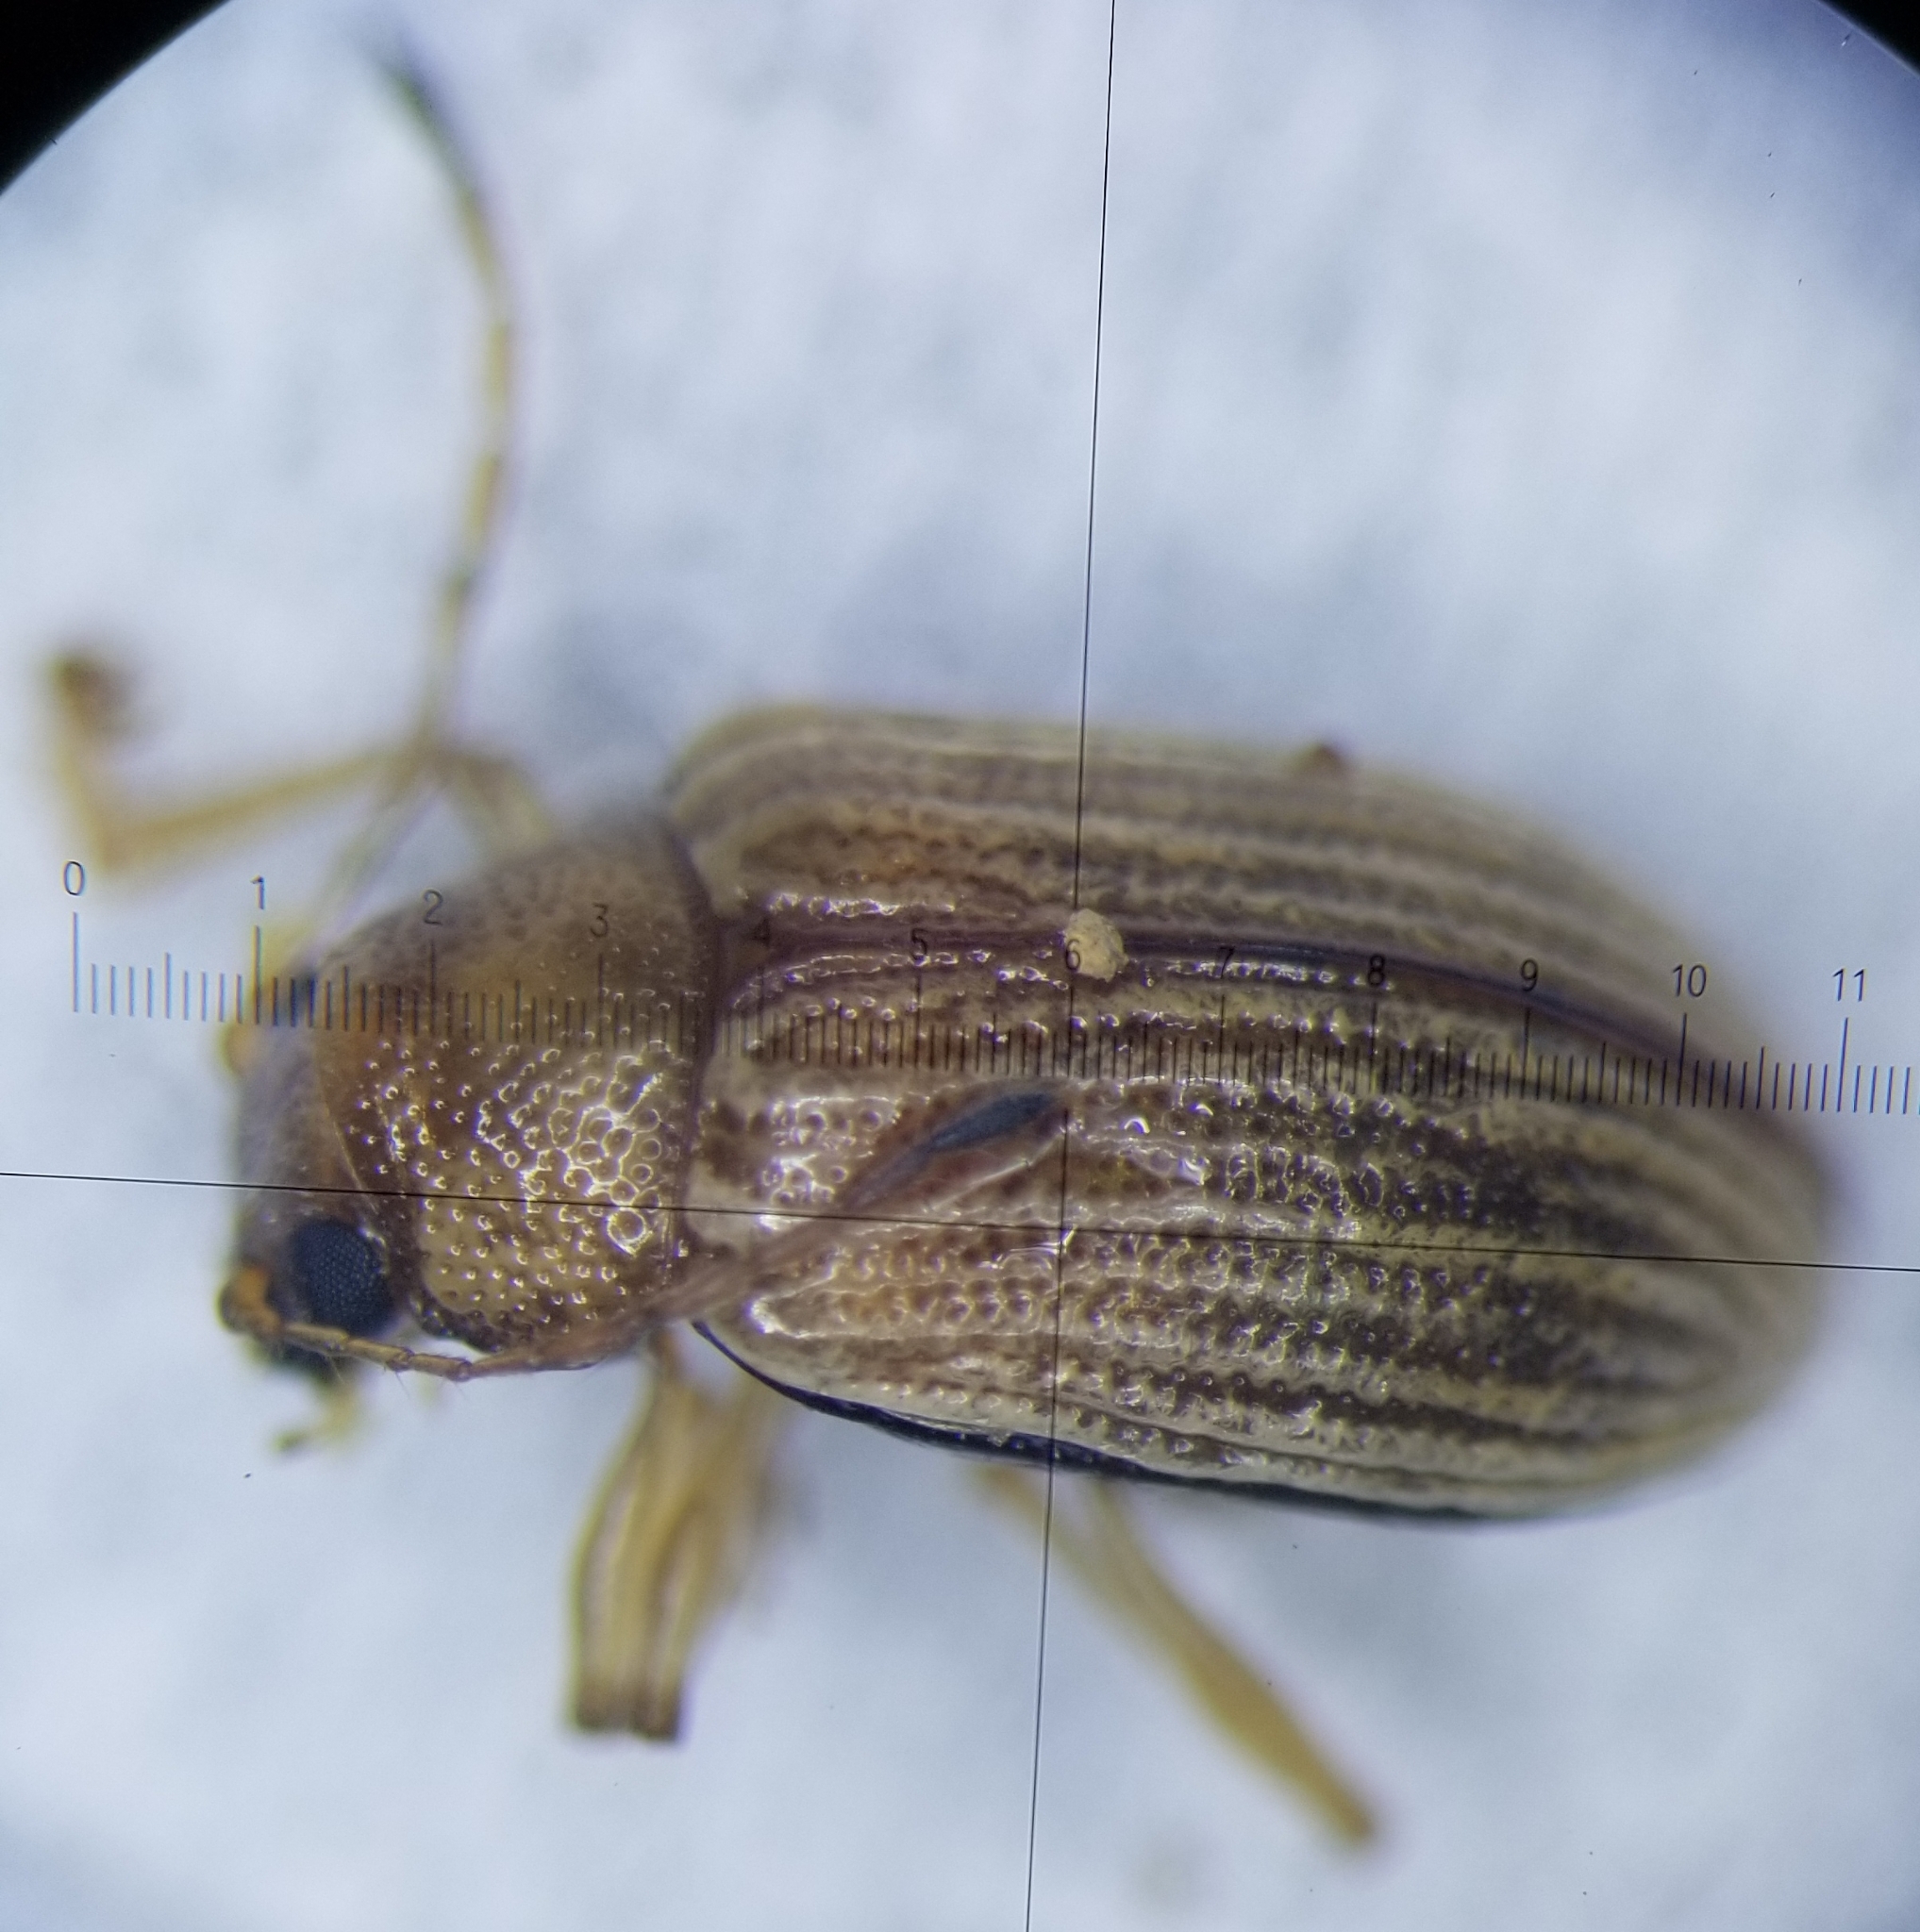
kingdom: Animalia
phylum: Arthropoda
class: Insecta
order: Coleoptera
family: Chrysomelidae
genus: Colaspis
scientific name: Colaspis brunnea
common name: Grape colaspis
